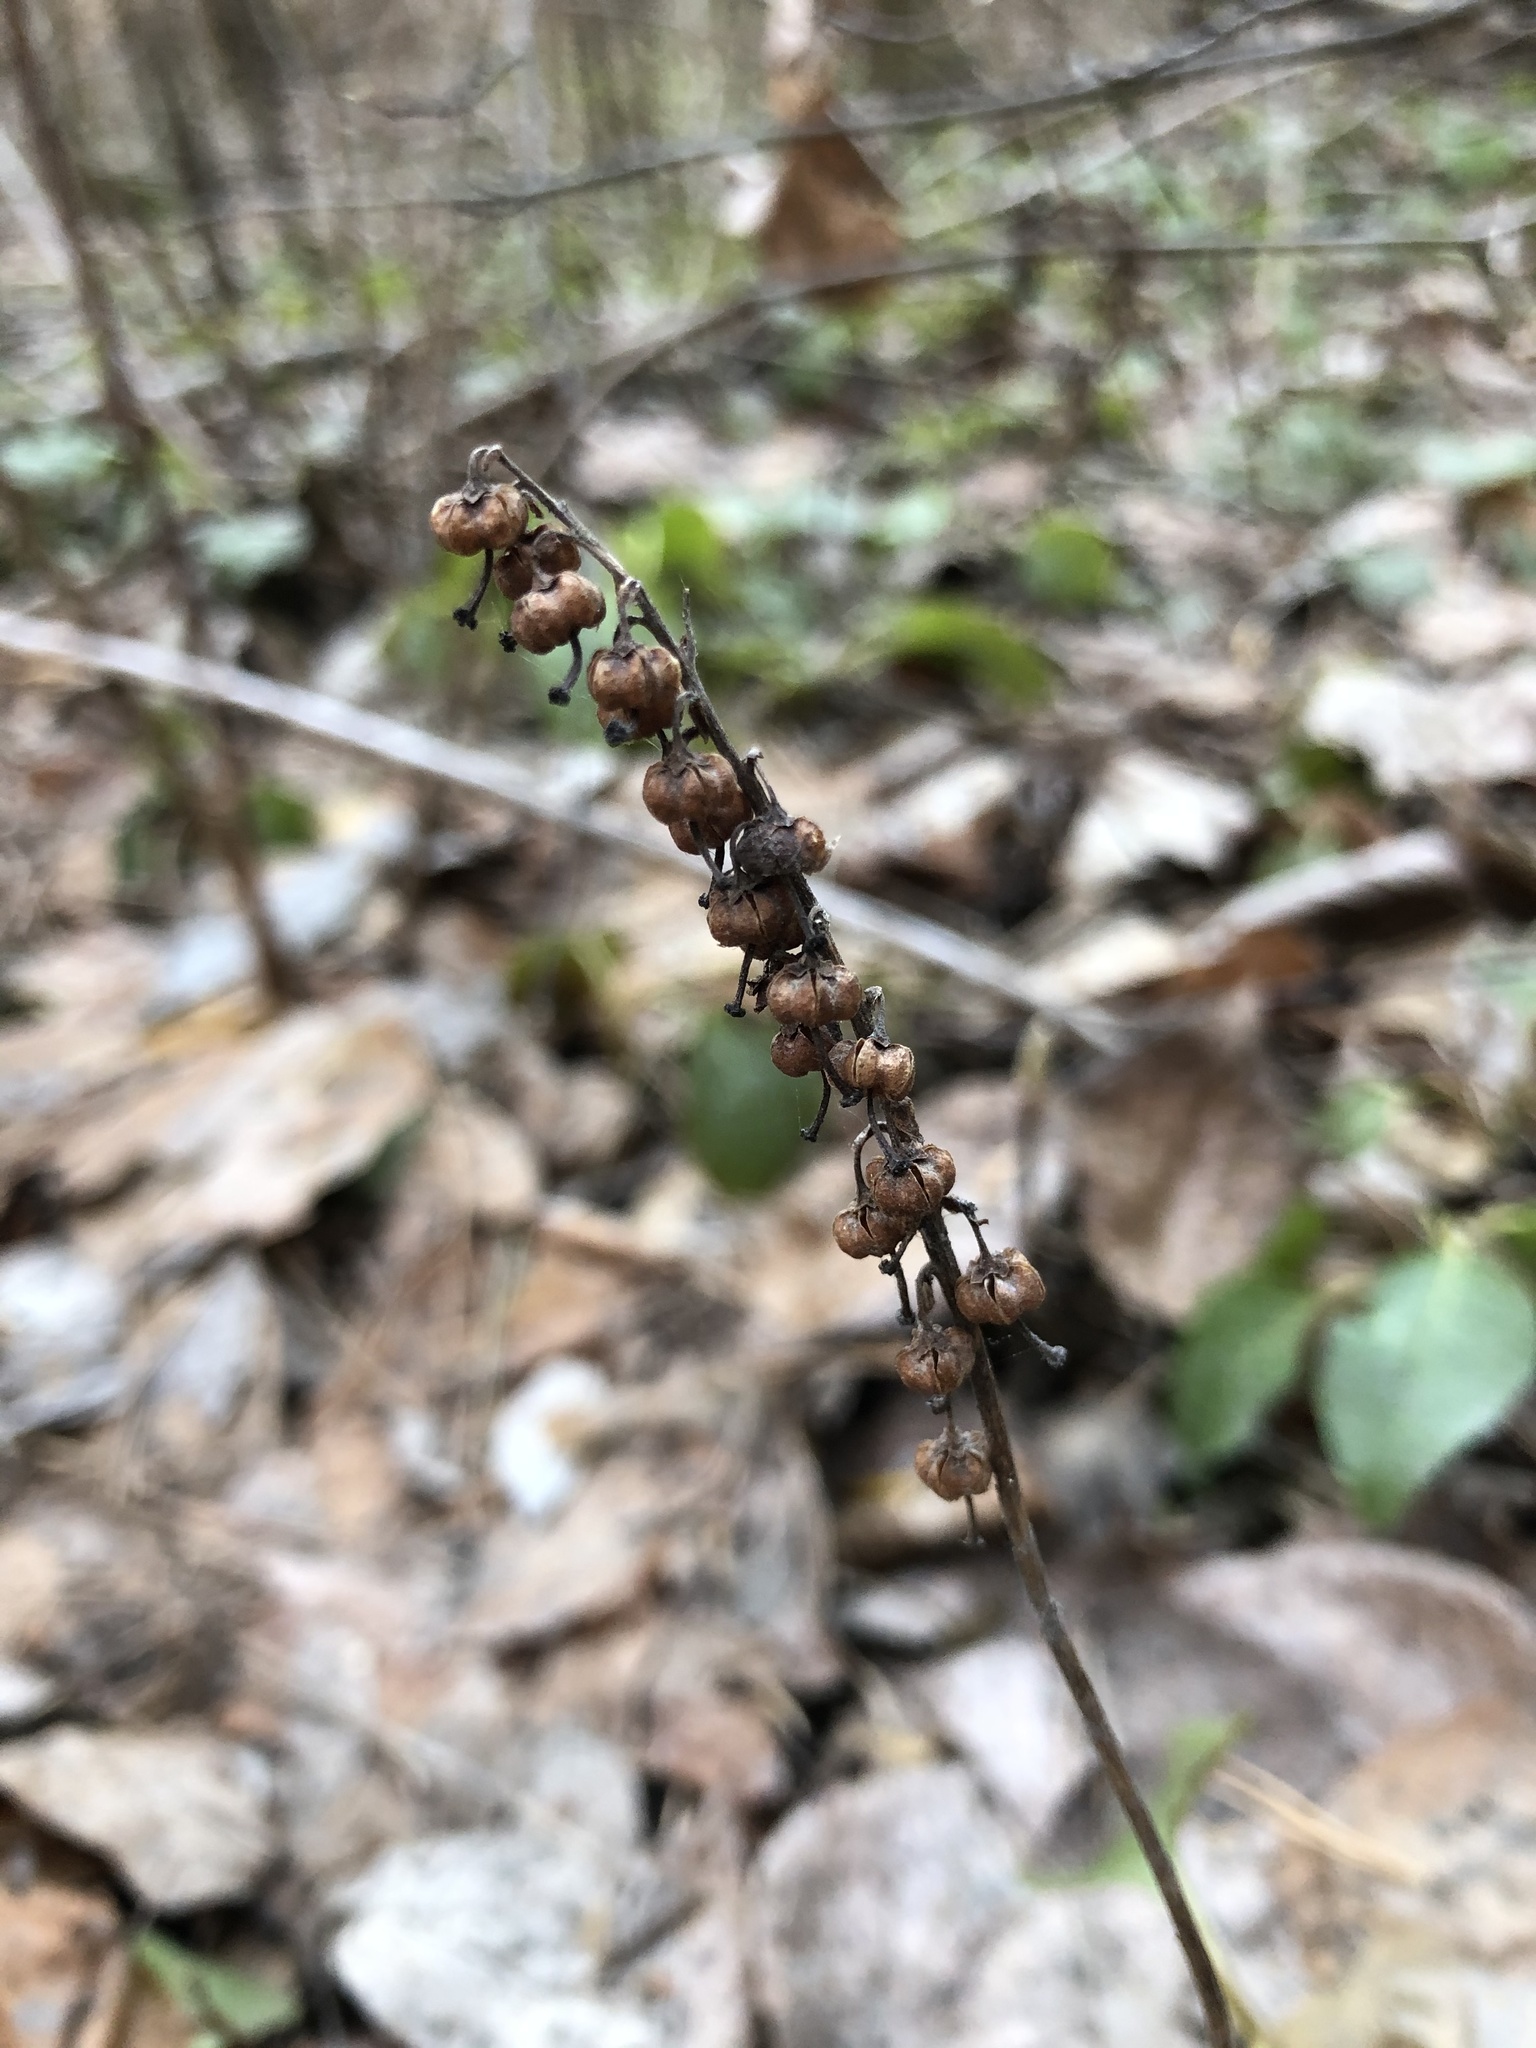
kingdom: Plantae
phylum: Tracheophyta
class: Magnoliopsida
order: Ericales
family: Ericaceae
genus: Orthilia
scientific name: Orthilia secunda
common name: One-sided orthilia
